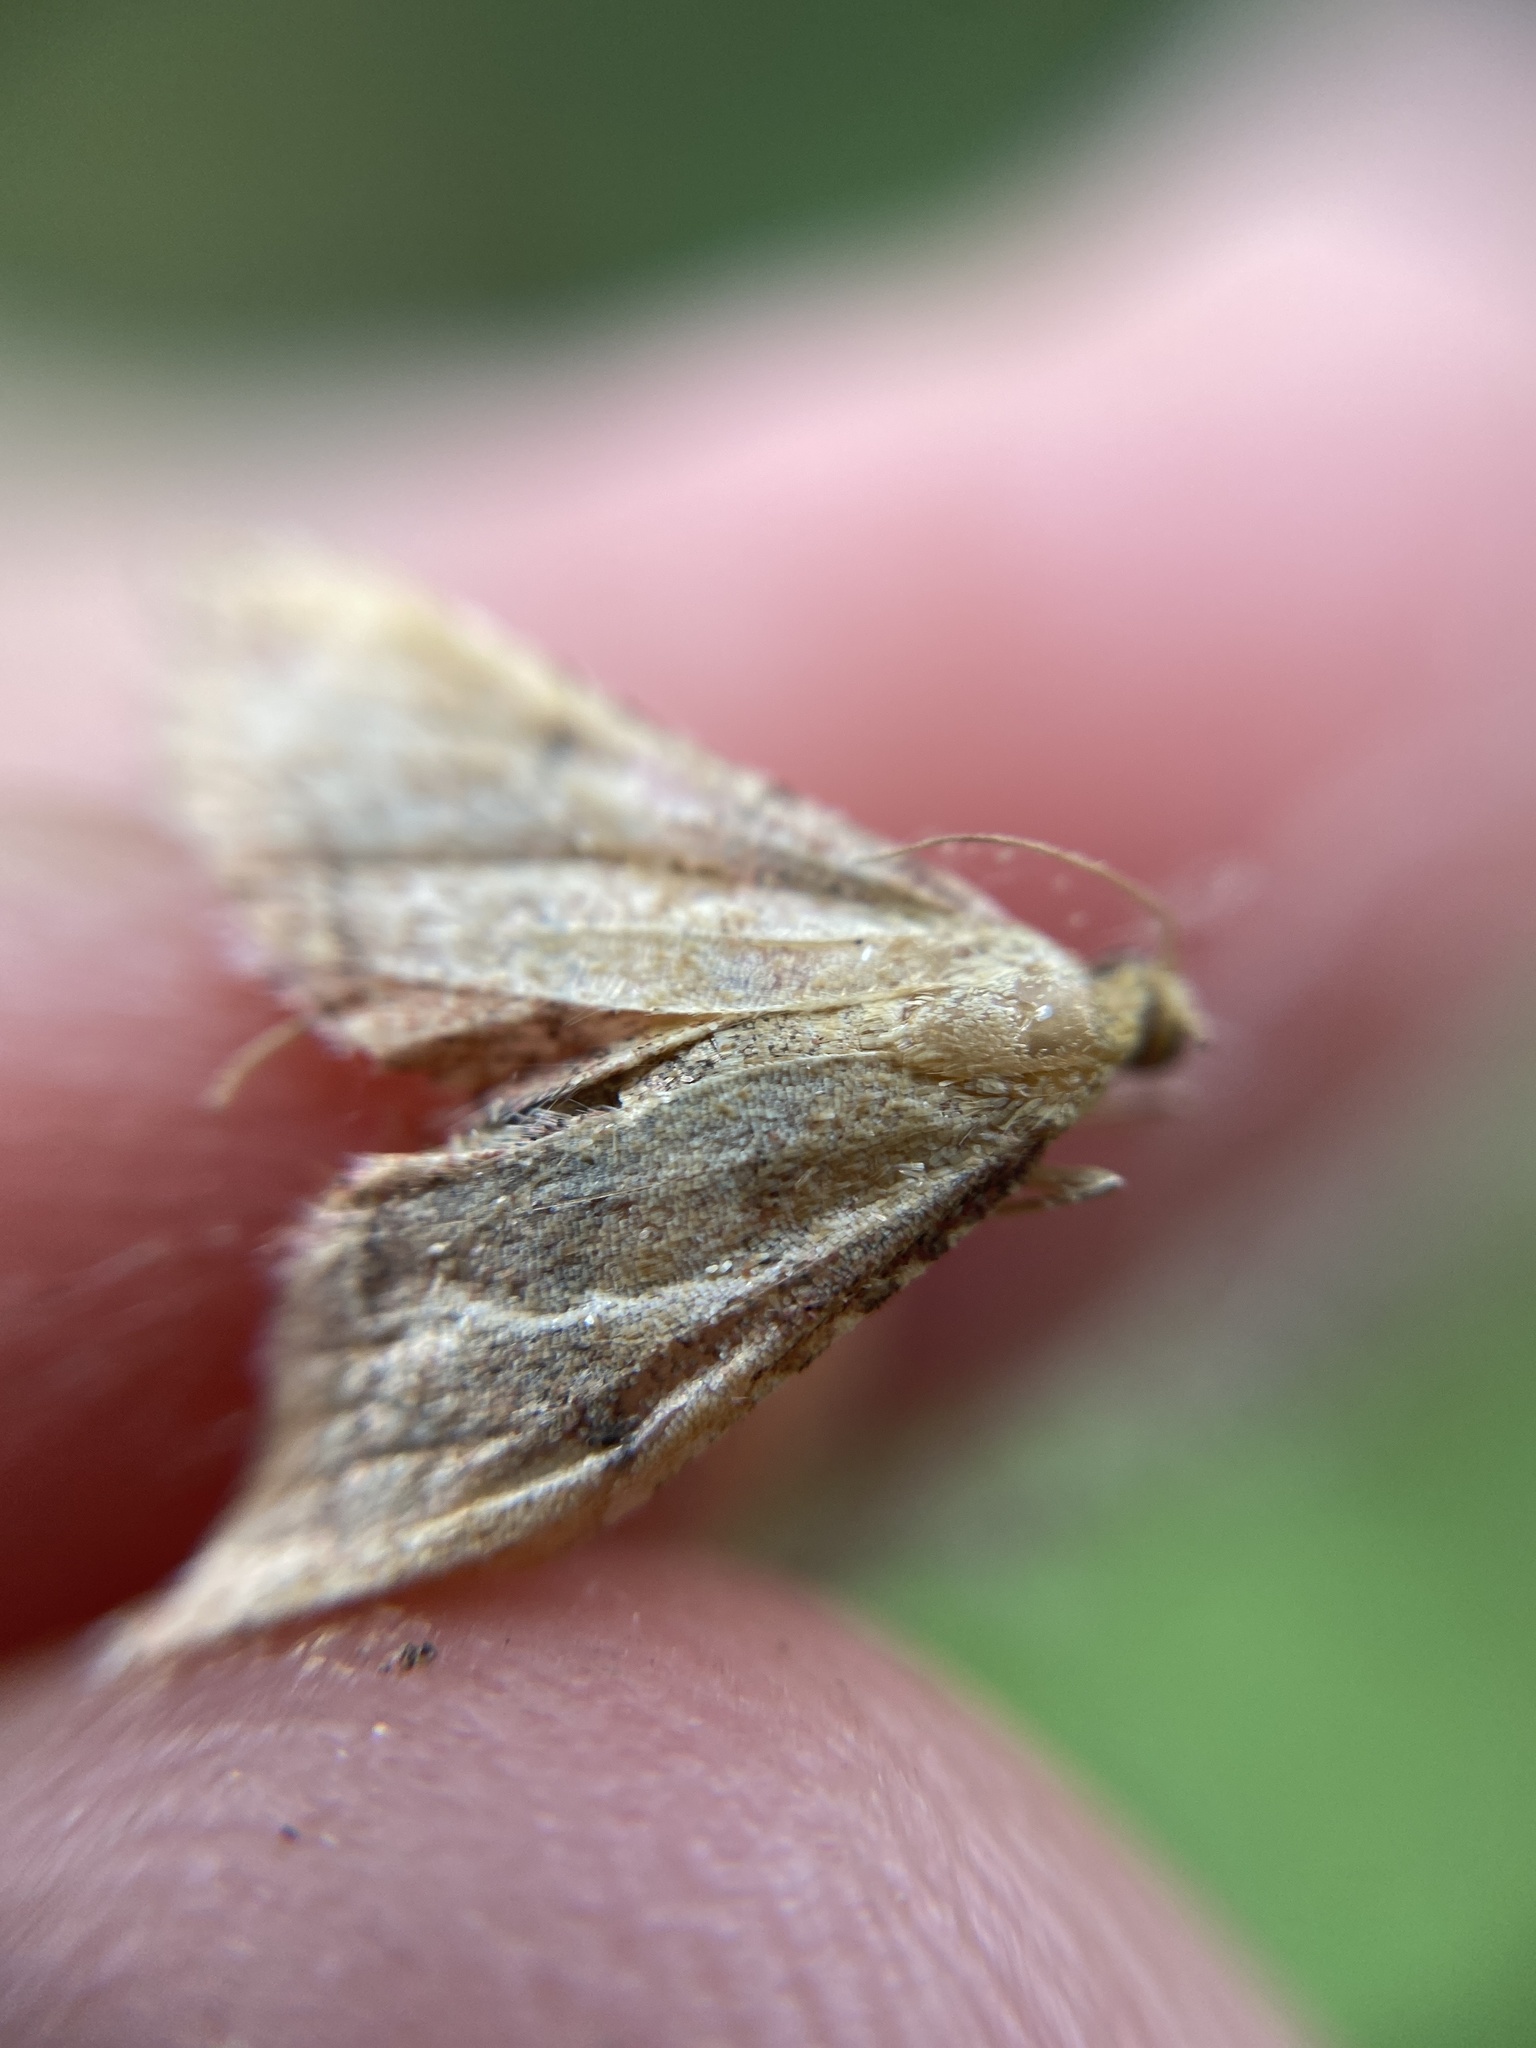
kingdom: Animalia
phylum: Arthropoda
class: Insecta
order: Lepidoptera
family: Pyralidae
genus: Endotricha
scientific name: Endotricha flammealis
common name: Rosy tabby
